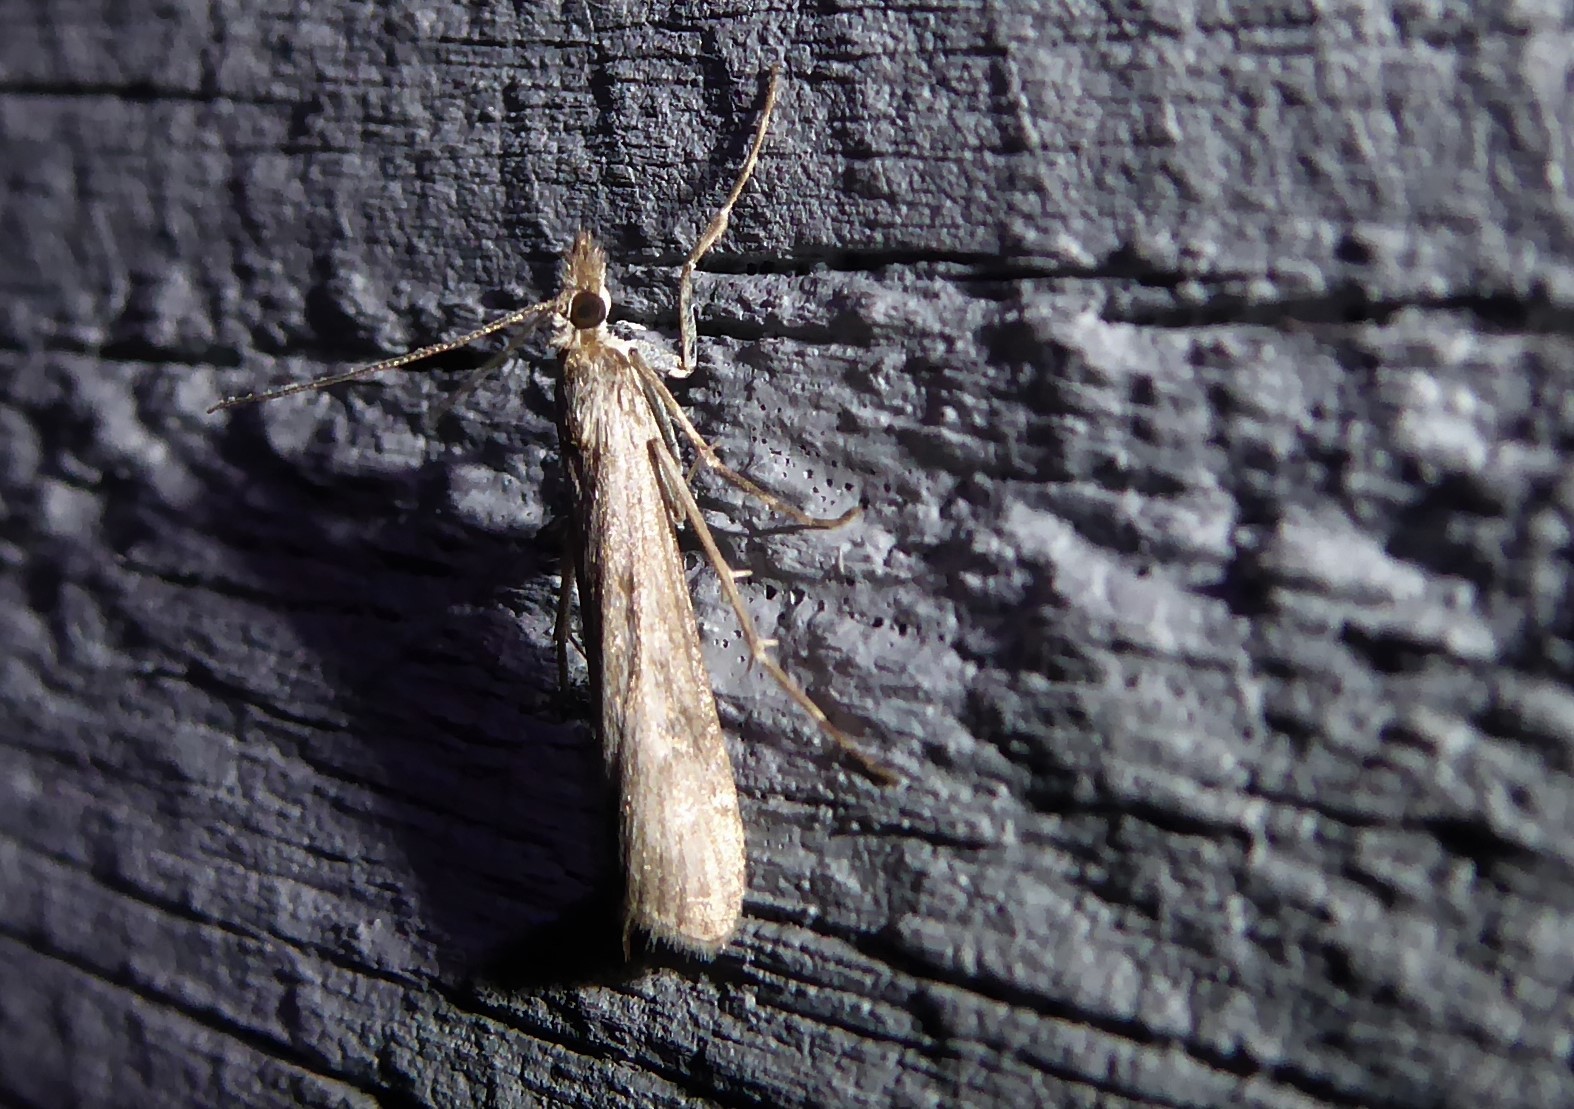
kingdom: Animalia
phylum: Arthropoda
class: Insecta
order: Lepidoptera
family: Crambidae
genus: Eudonia
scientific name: Eudonia leptalea
